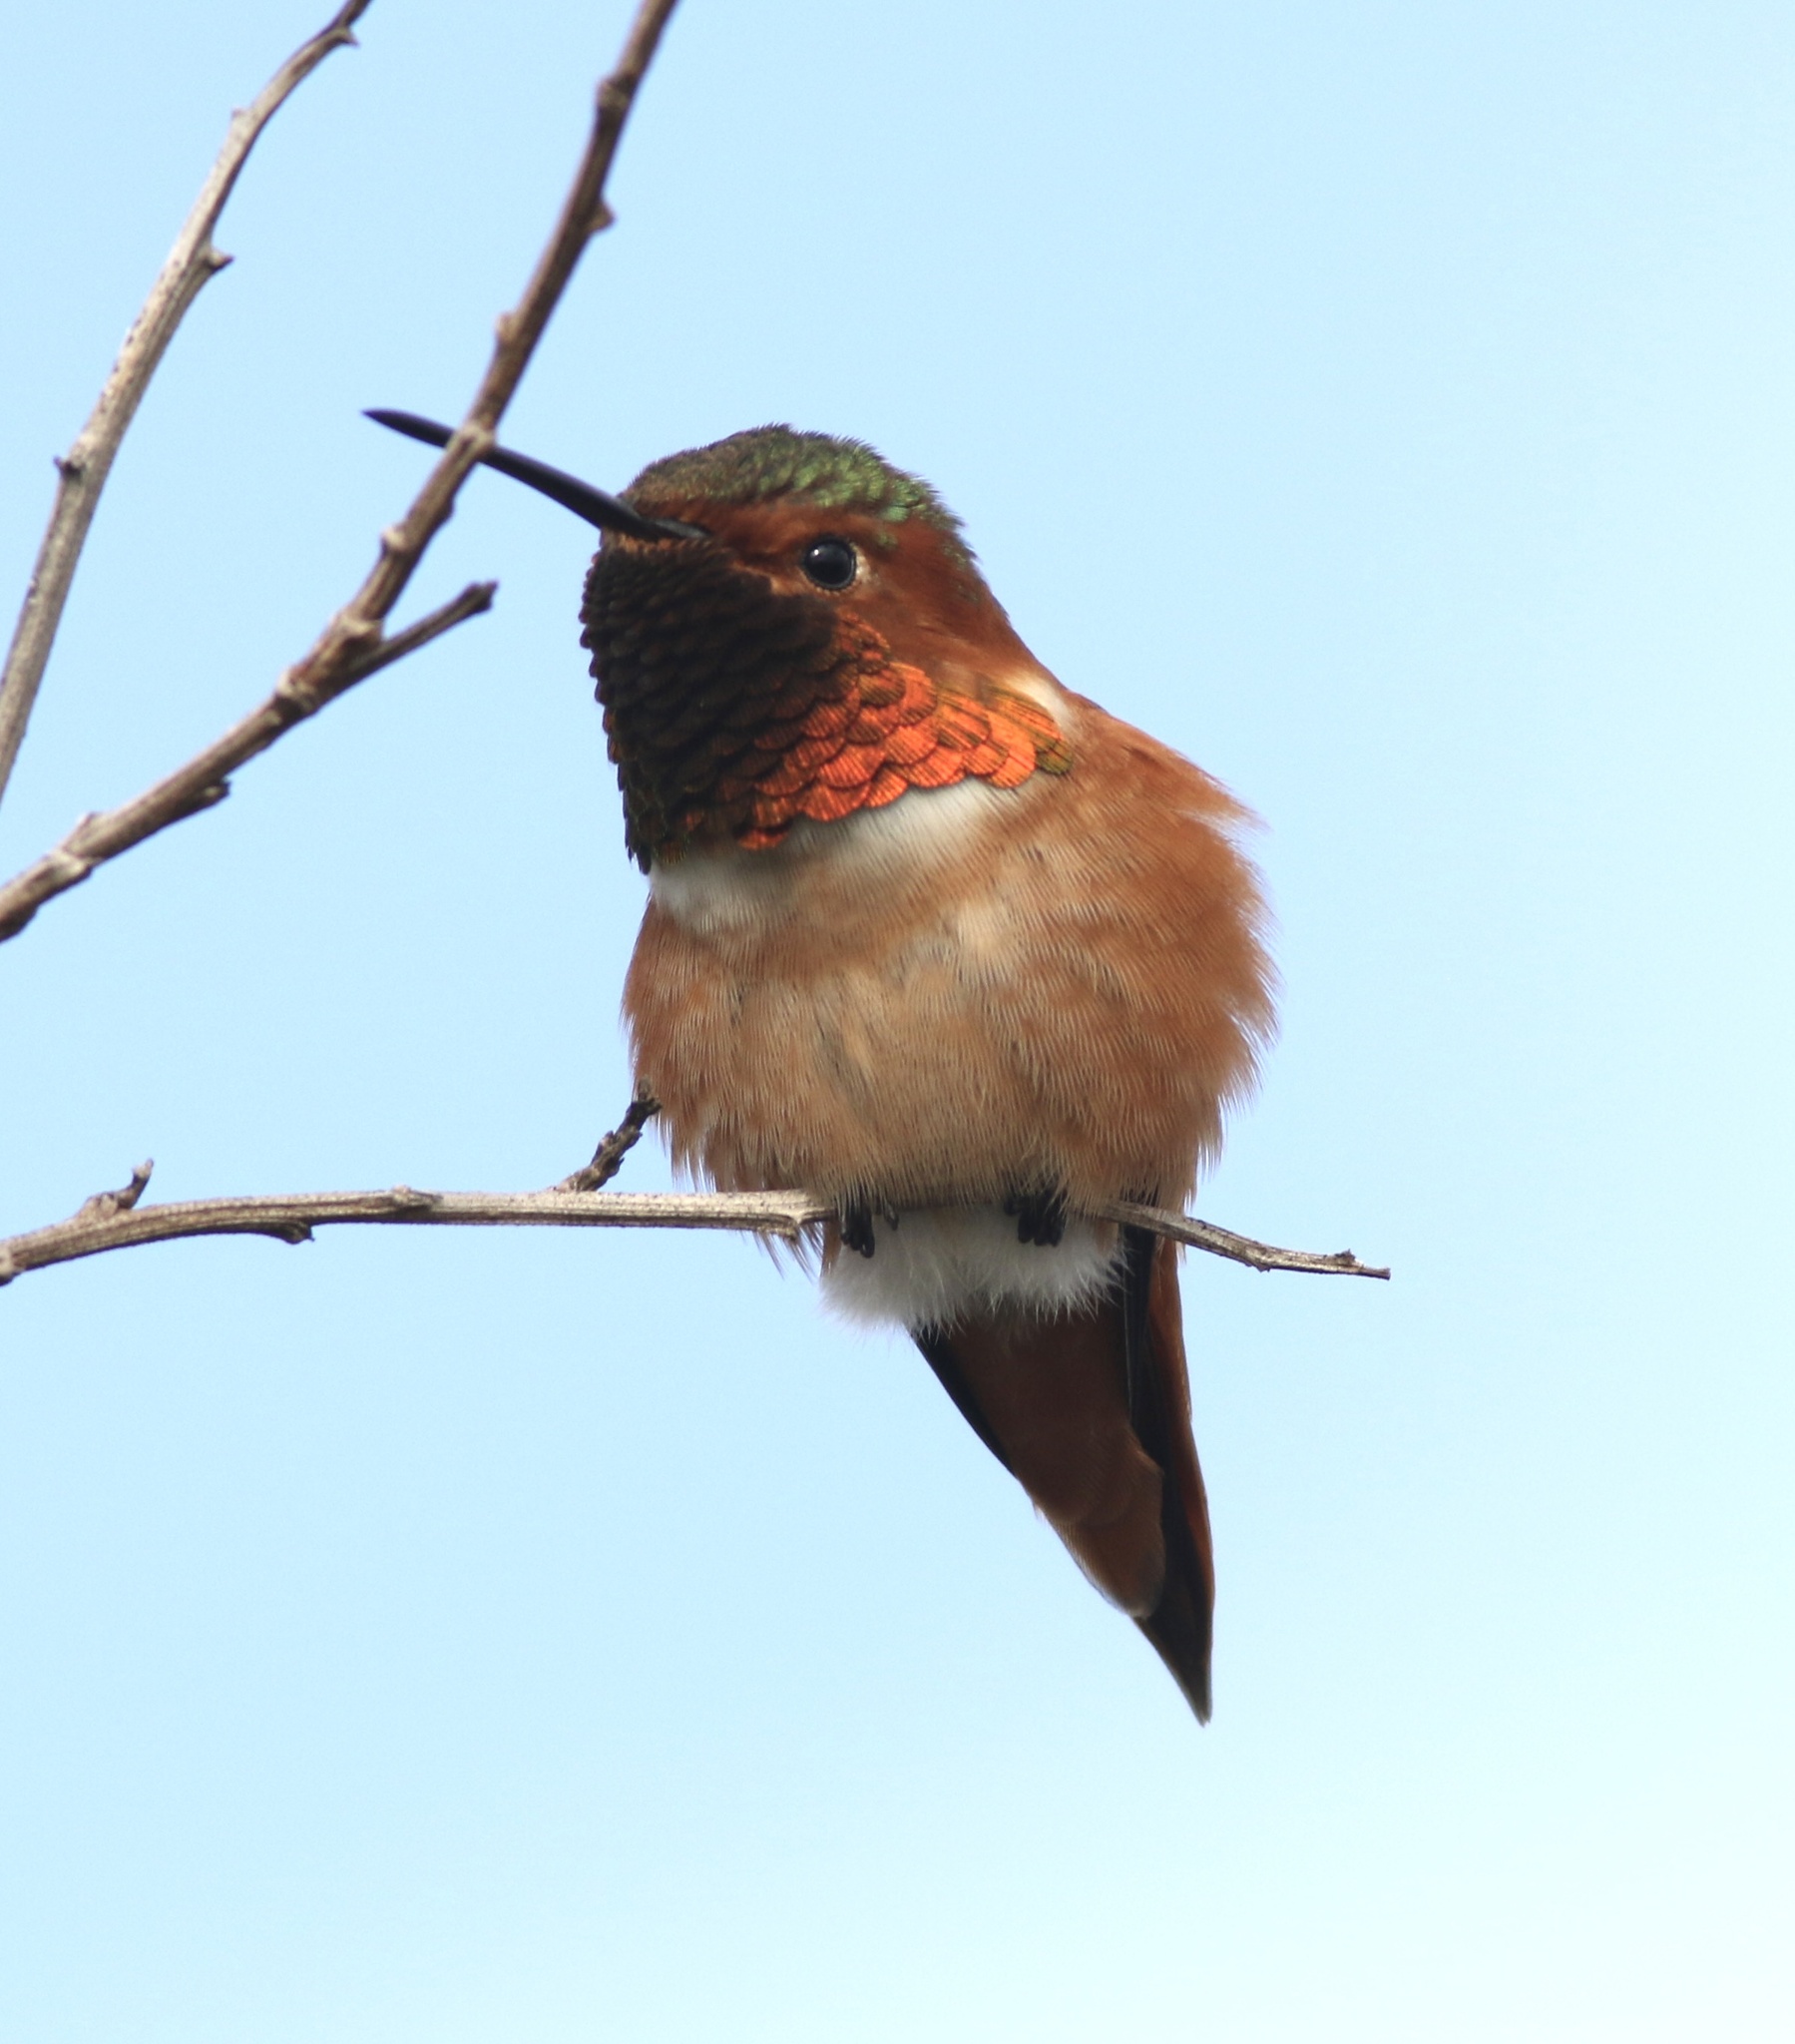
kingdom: Animalia
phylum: Chordata
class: Aves
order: Apodiformes
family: Trochilidae
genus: Selasphorus
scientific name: Selasphorus sasin
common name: Allen's hummingbird
